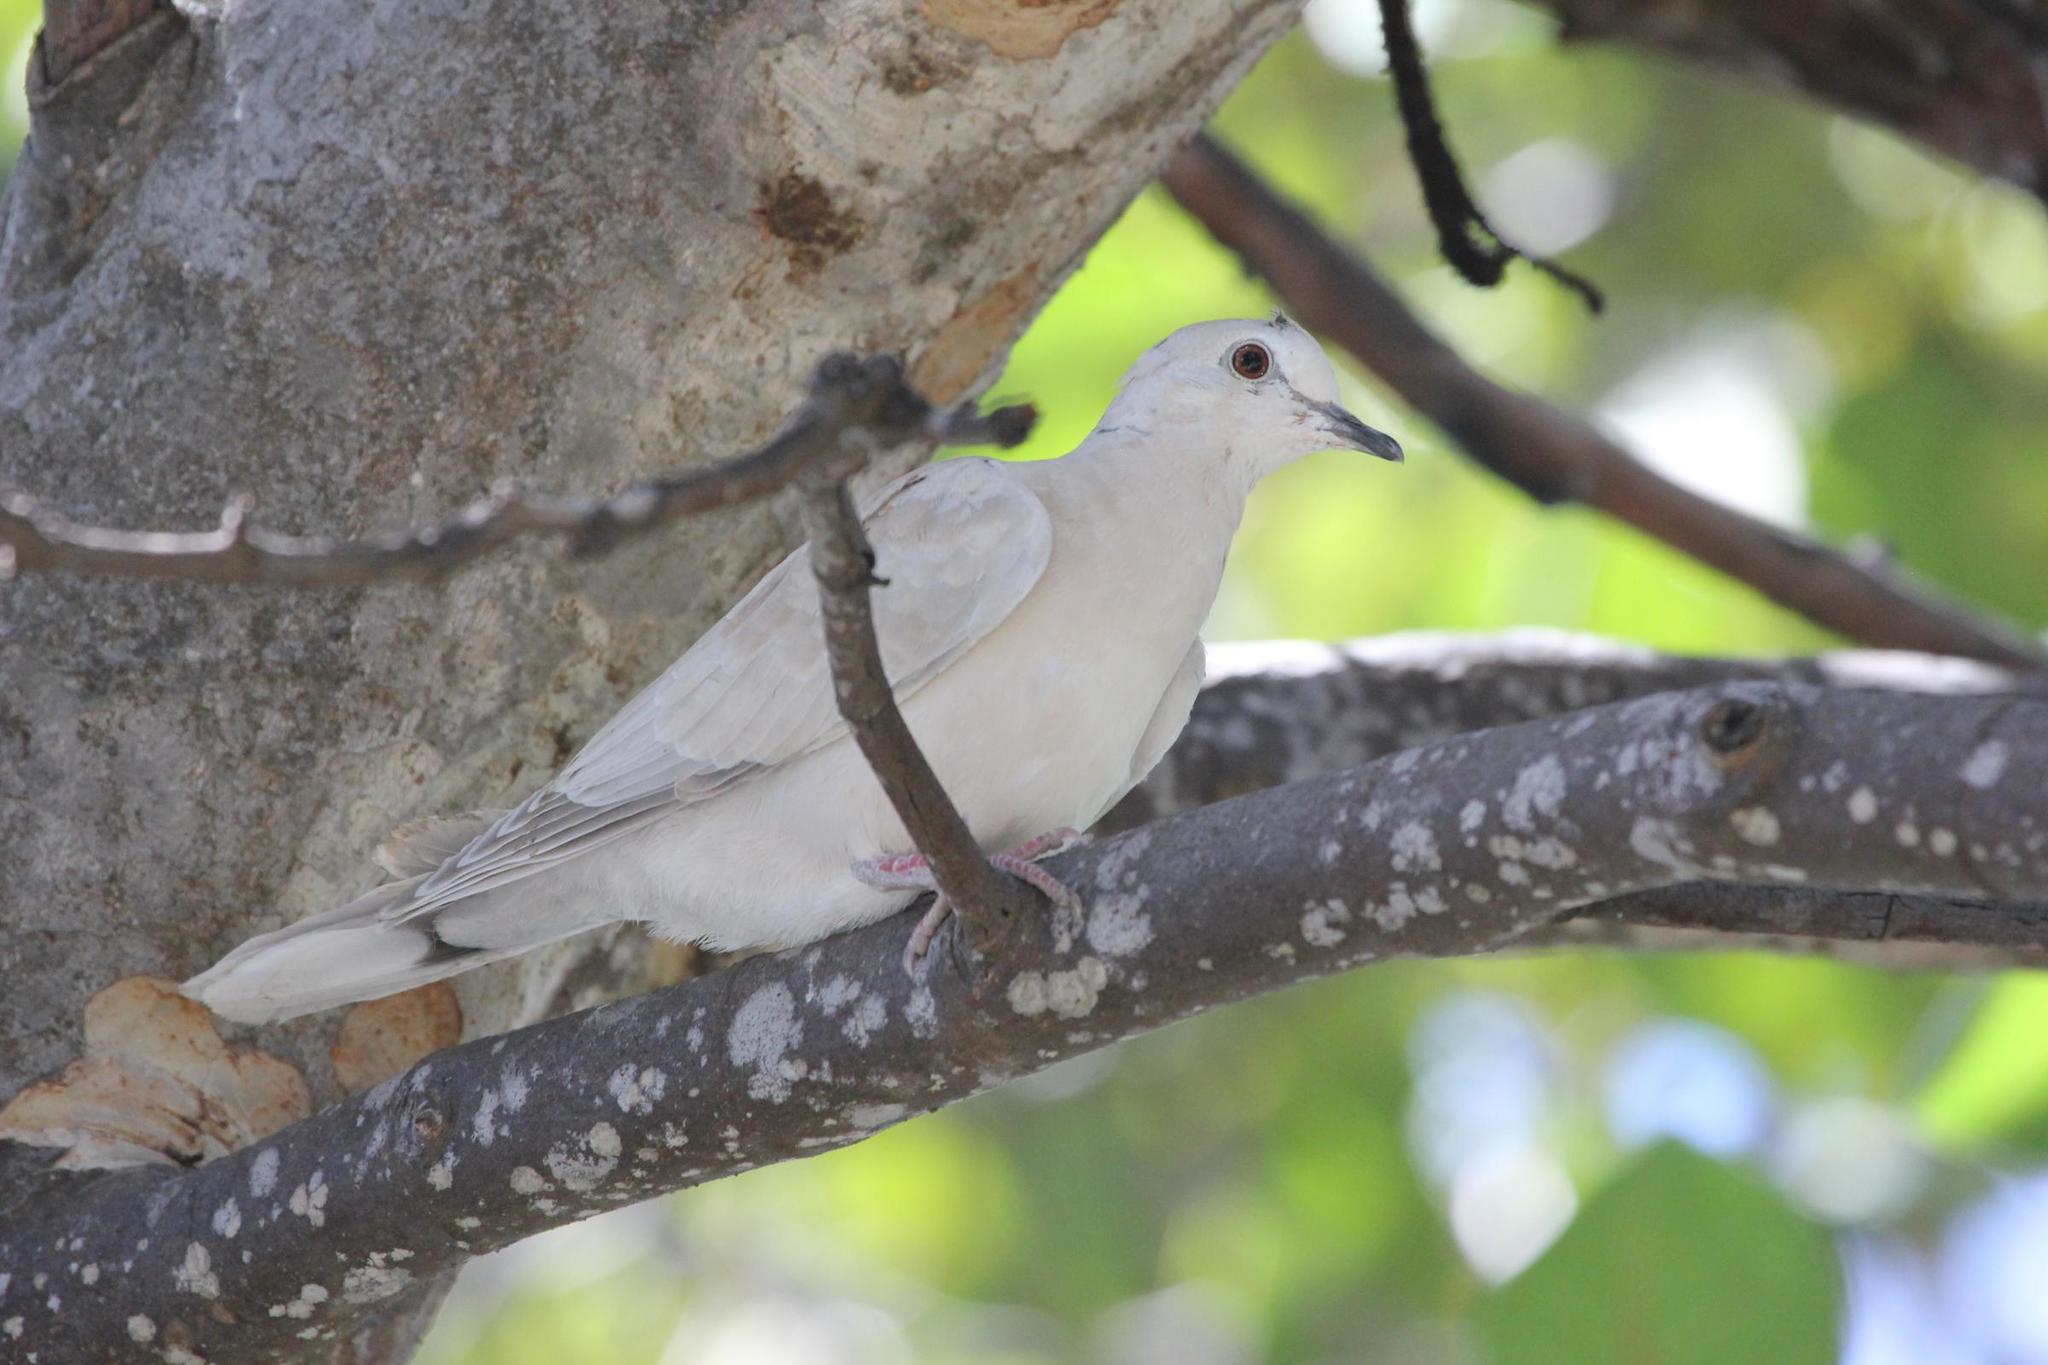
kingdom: Animalia
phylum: Chordata
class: Aves
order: Columbiformes
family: Columbidae
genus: Streptopelia
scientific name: Streptopelia roseogrisea
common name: African collared dove
